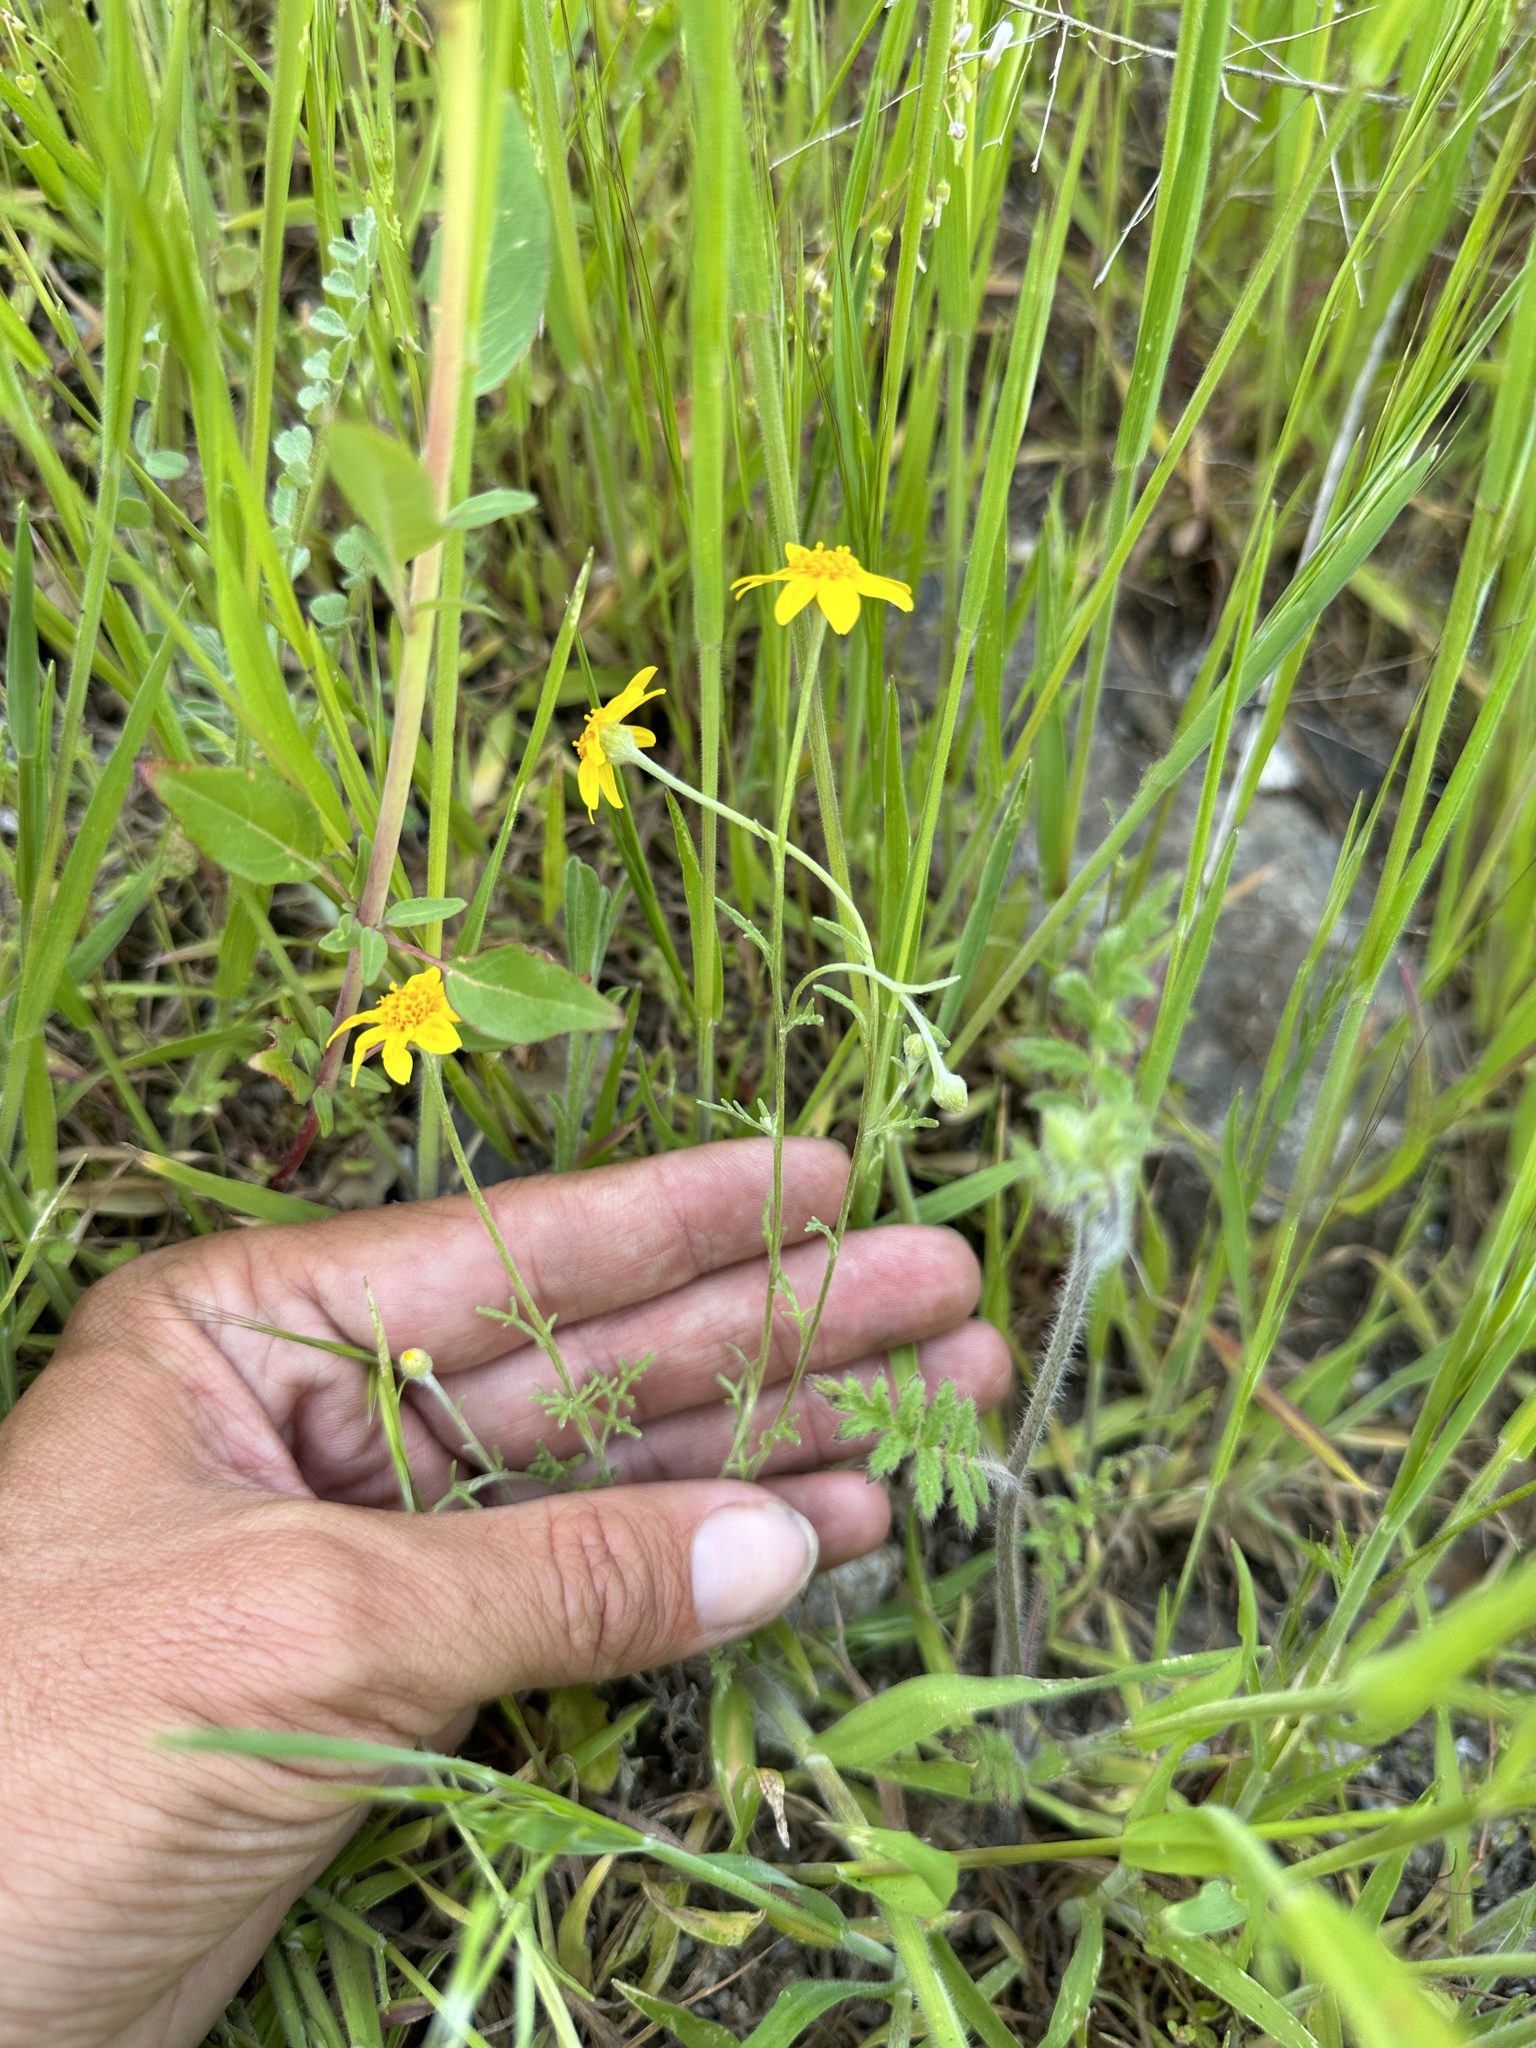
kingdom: Plantae
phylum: Tracheophyta
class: Magnoliopsida
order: Asterales
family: Asteraceae
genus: Pseudobahia
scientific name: Pseudobahia heermannii
